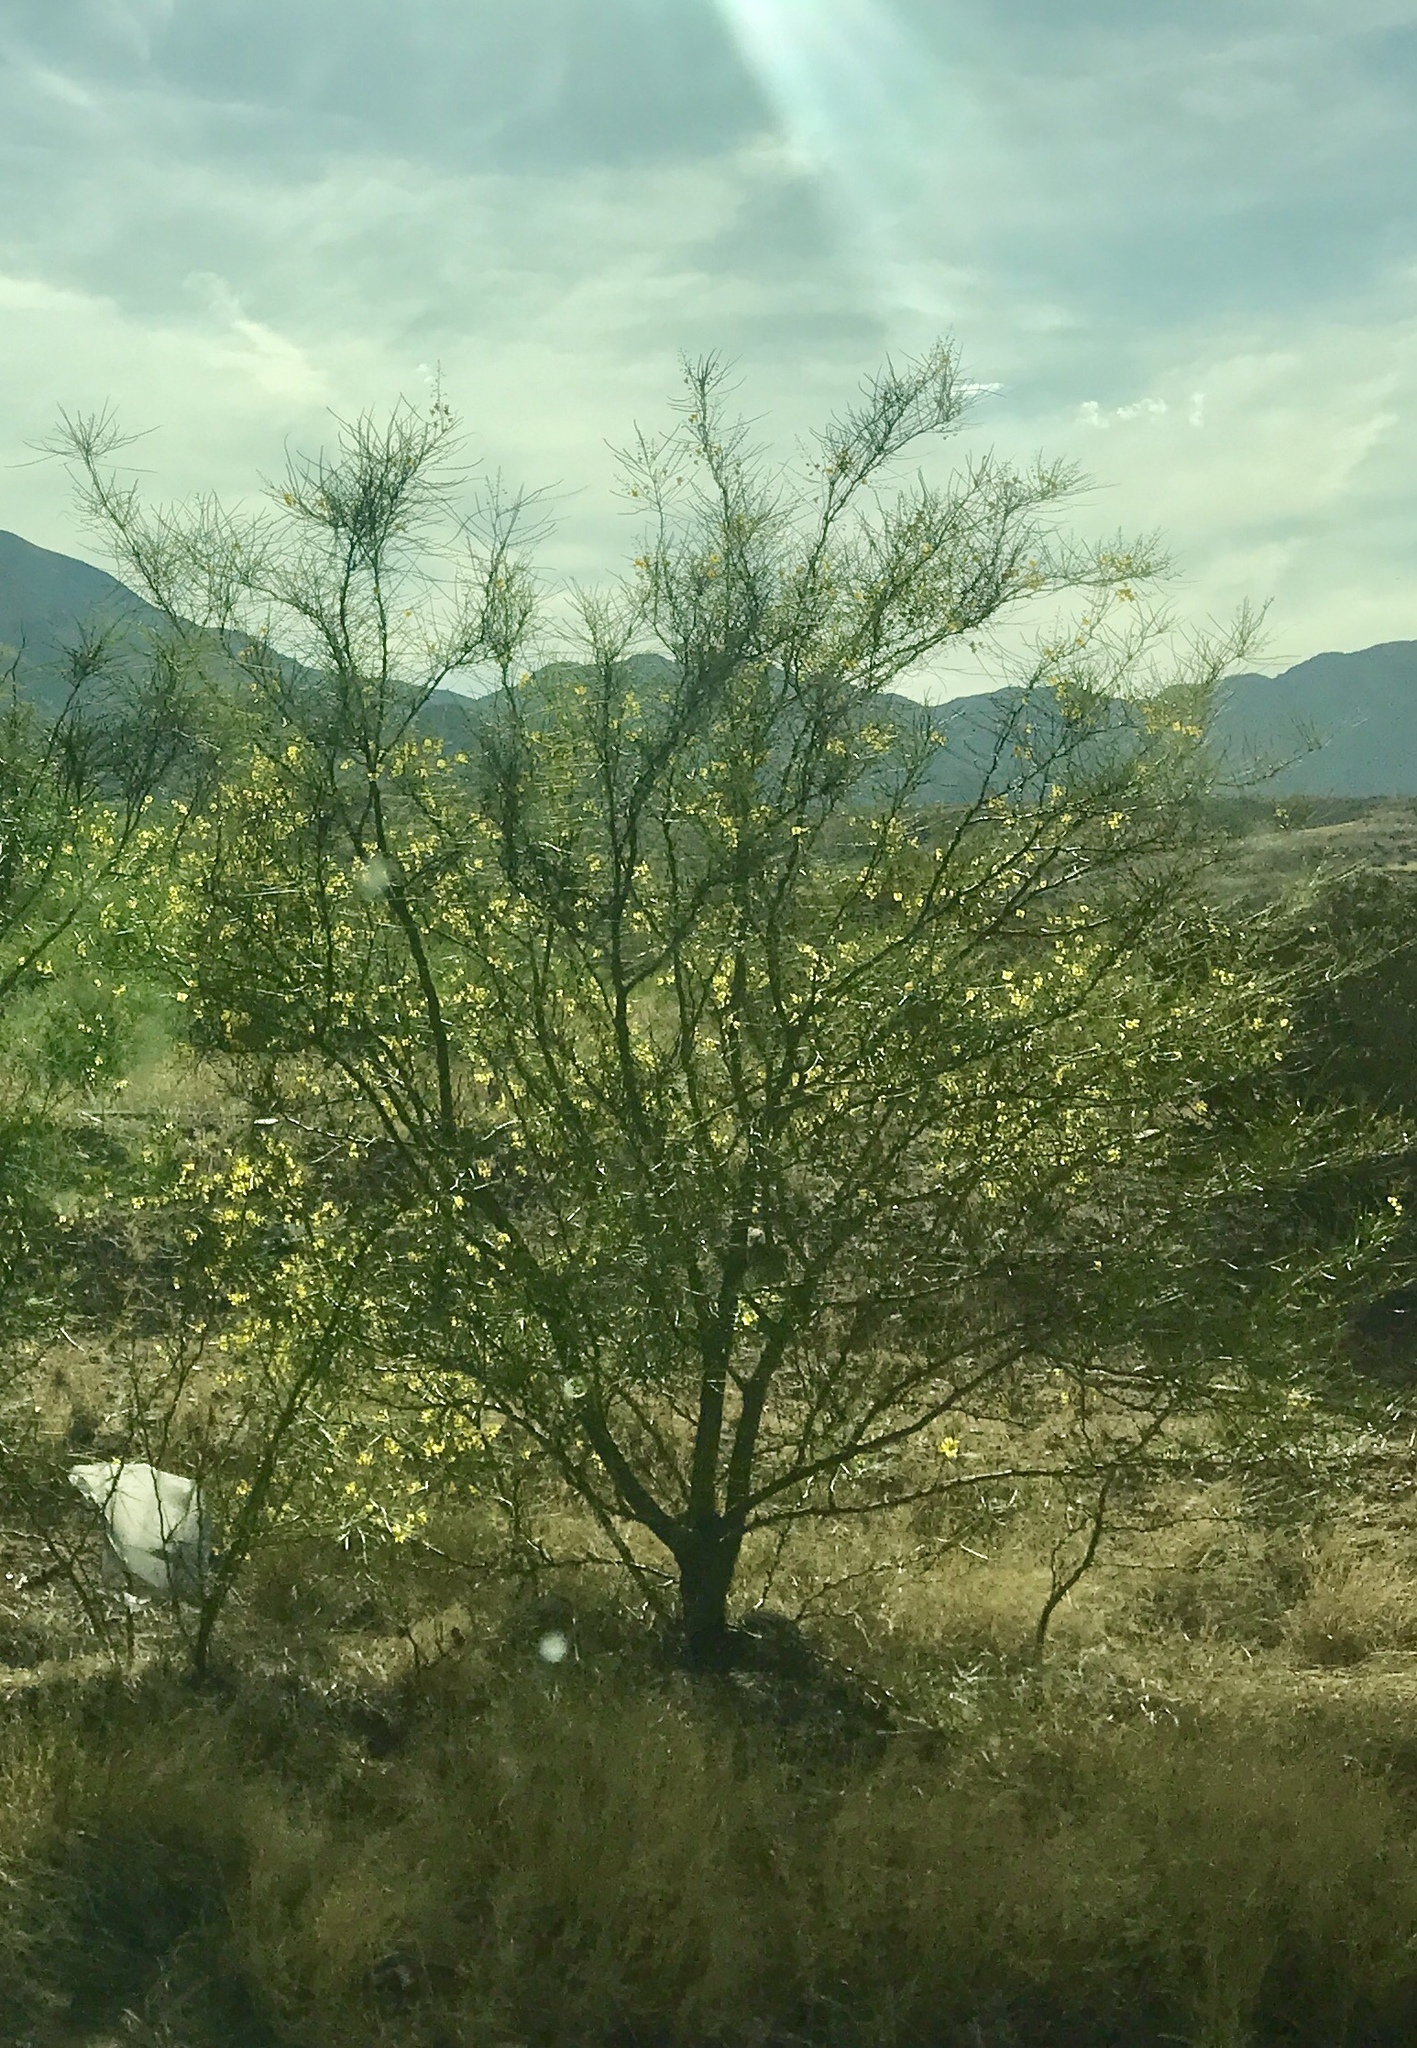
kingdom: Plantae
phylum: Tracheophyta
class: Magnoliopsida
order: Fabales
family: Fabaceae
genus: Parkinsonia
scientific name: Parkinsonia aculeata
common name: Jerusalem thorn
